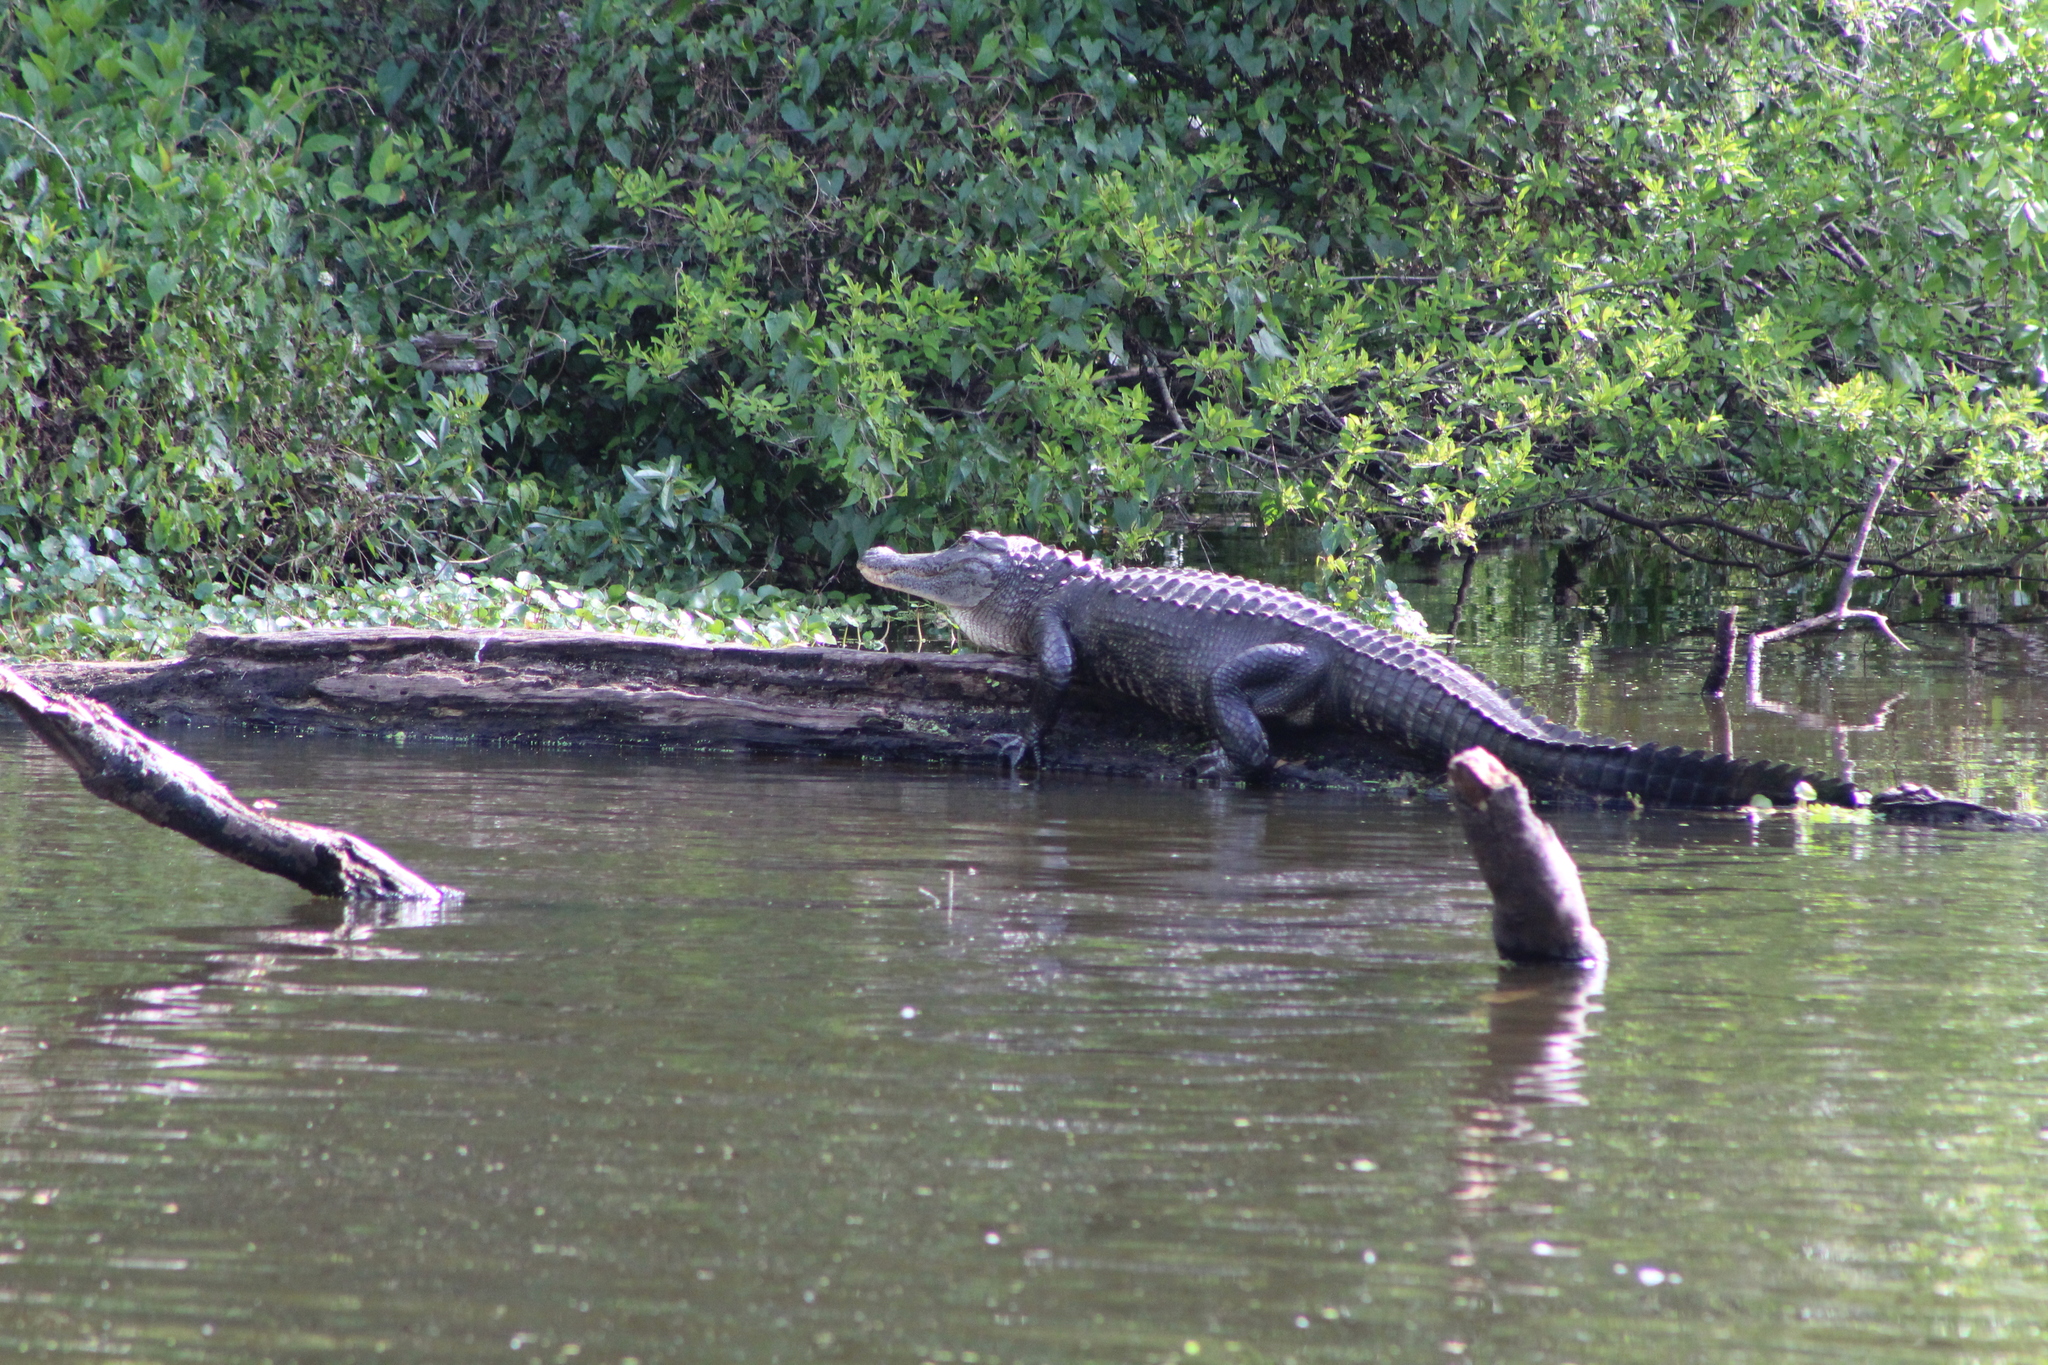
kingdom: Animalia
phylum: Chordata
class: Crocodylia
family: Alligatoridae
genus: Alligator
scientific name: Alligator mississippiensis
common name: American alligator
